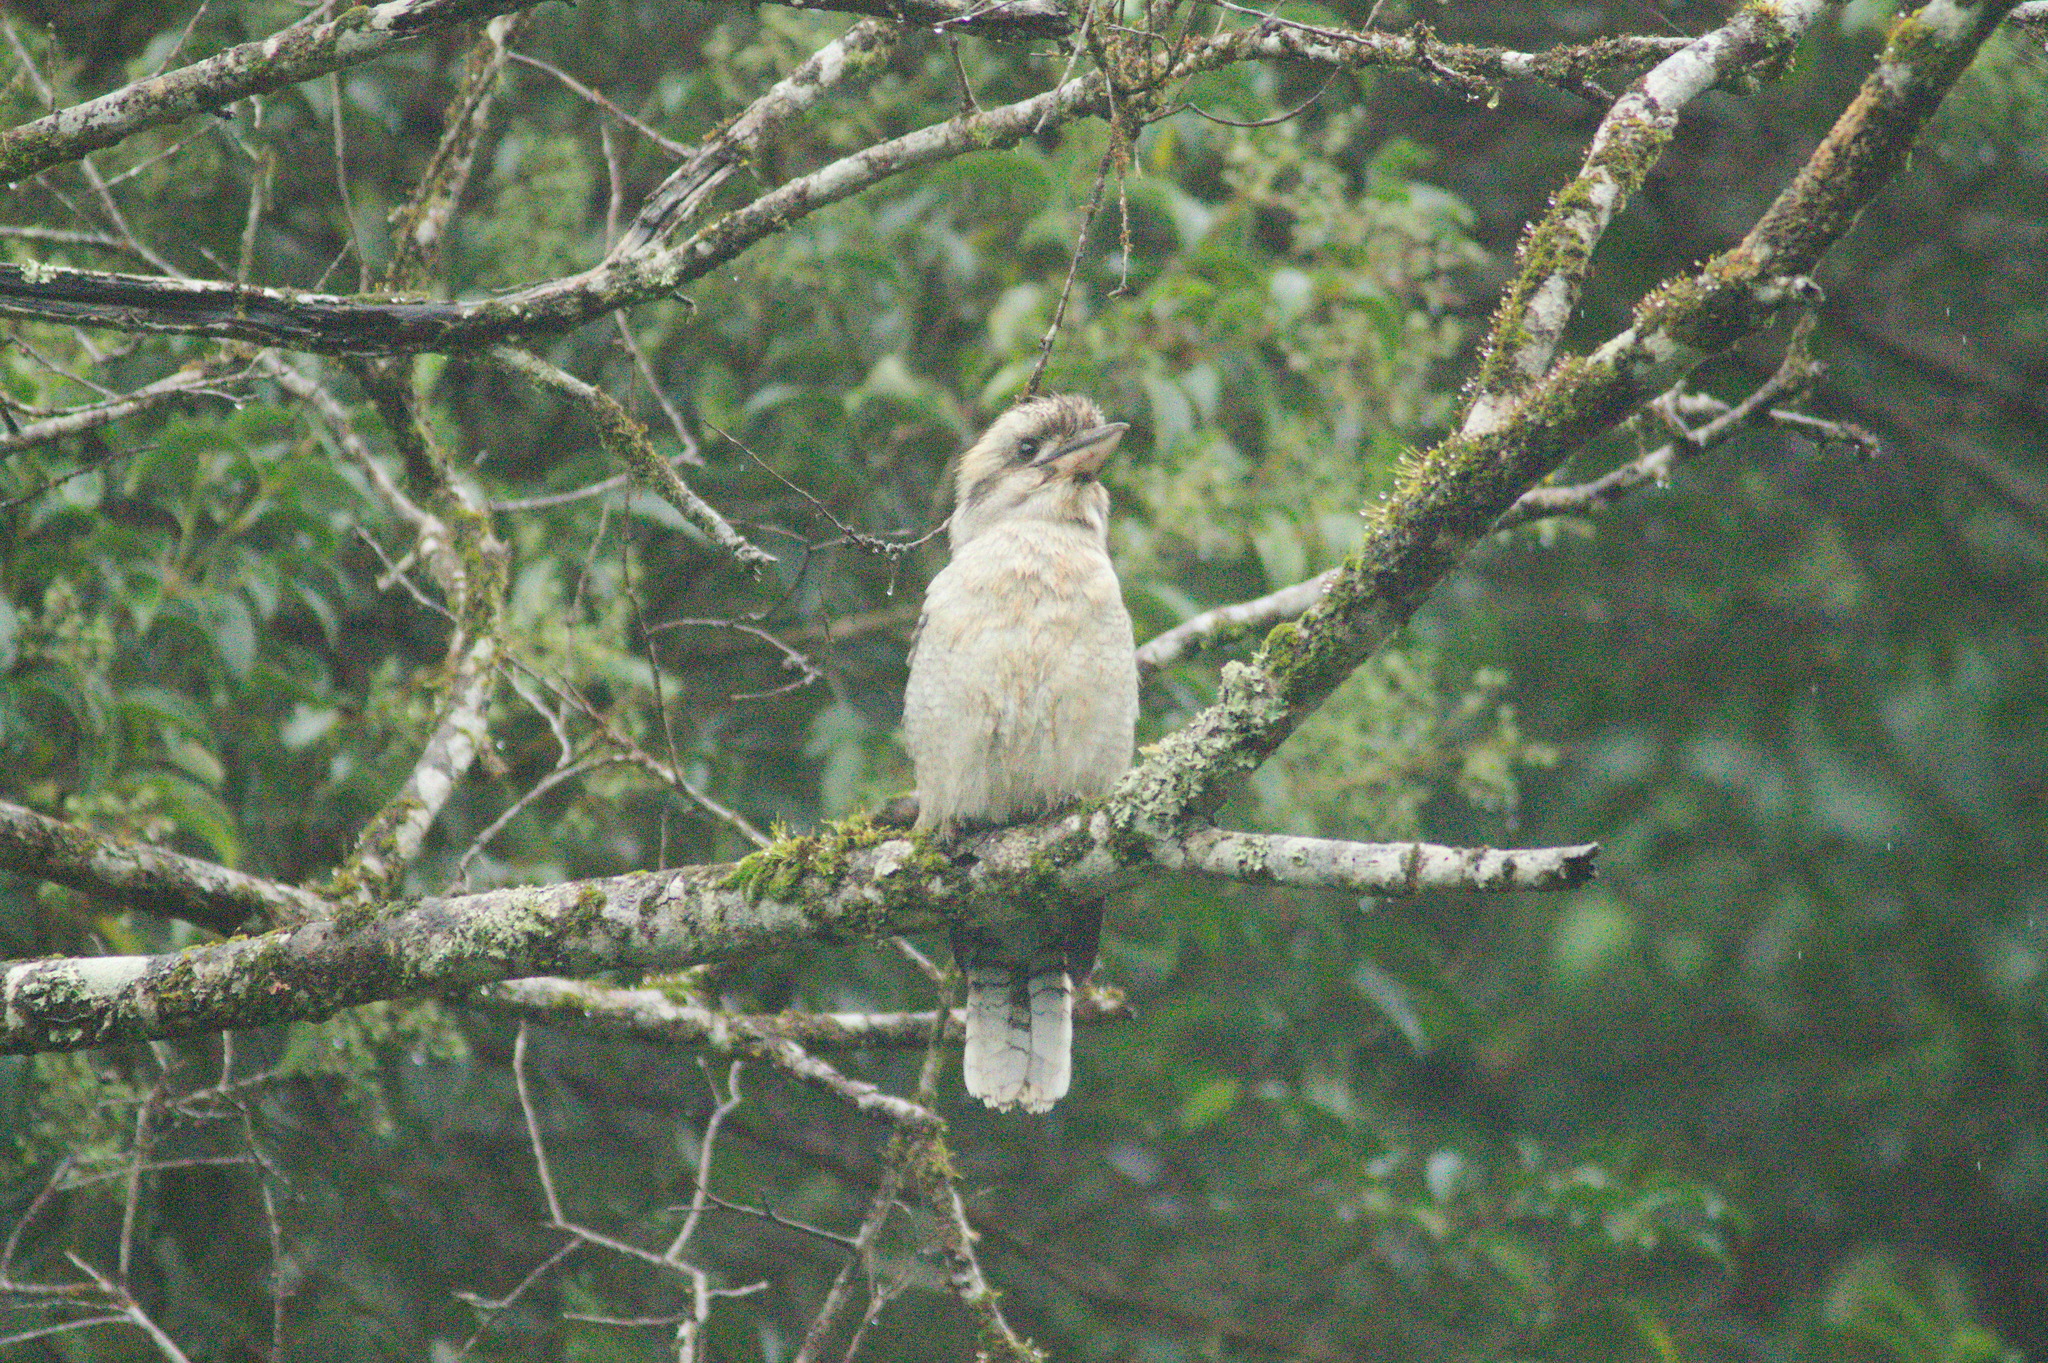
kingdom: Animalia
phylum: Chordata
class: Aves
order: Coraciiformes
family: Alcedinidae
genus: Dacelo
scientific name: Dacelo novaeguineae
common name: Laughing kookaburra
